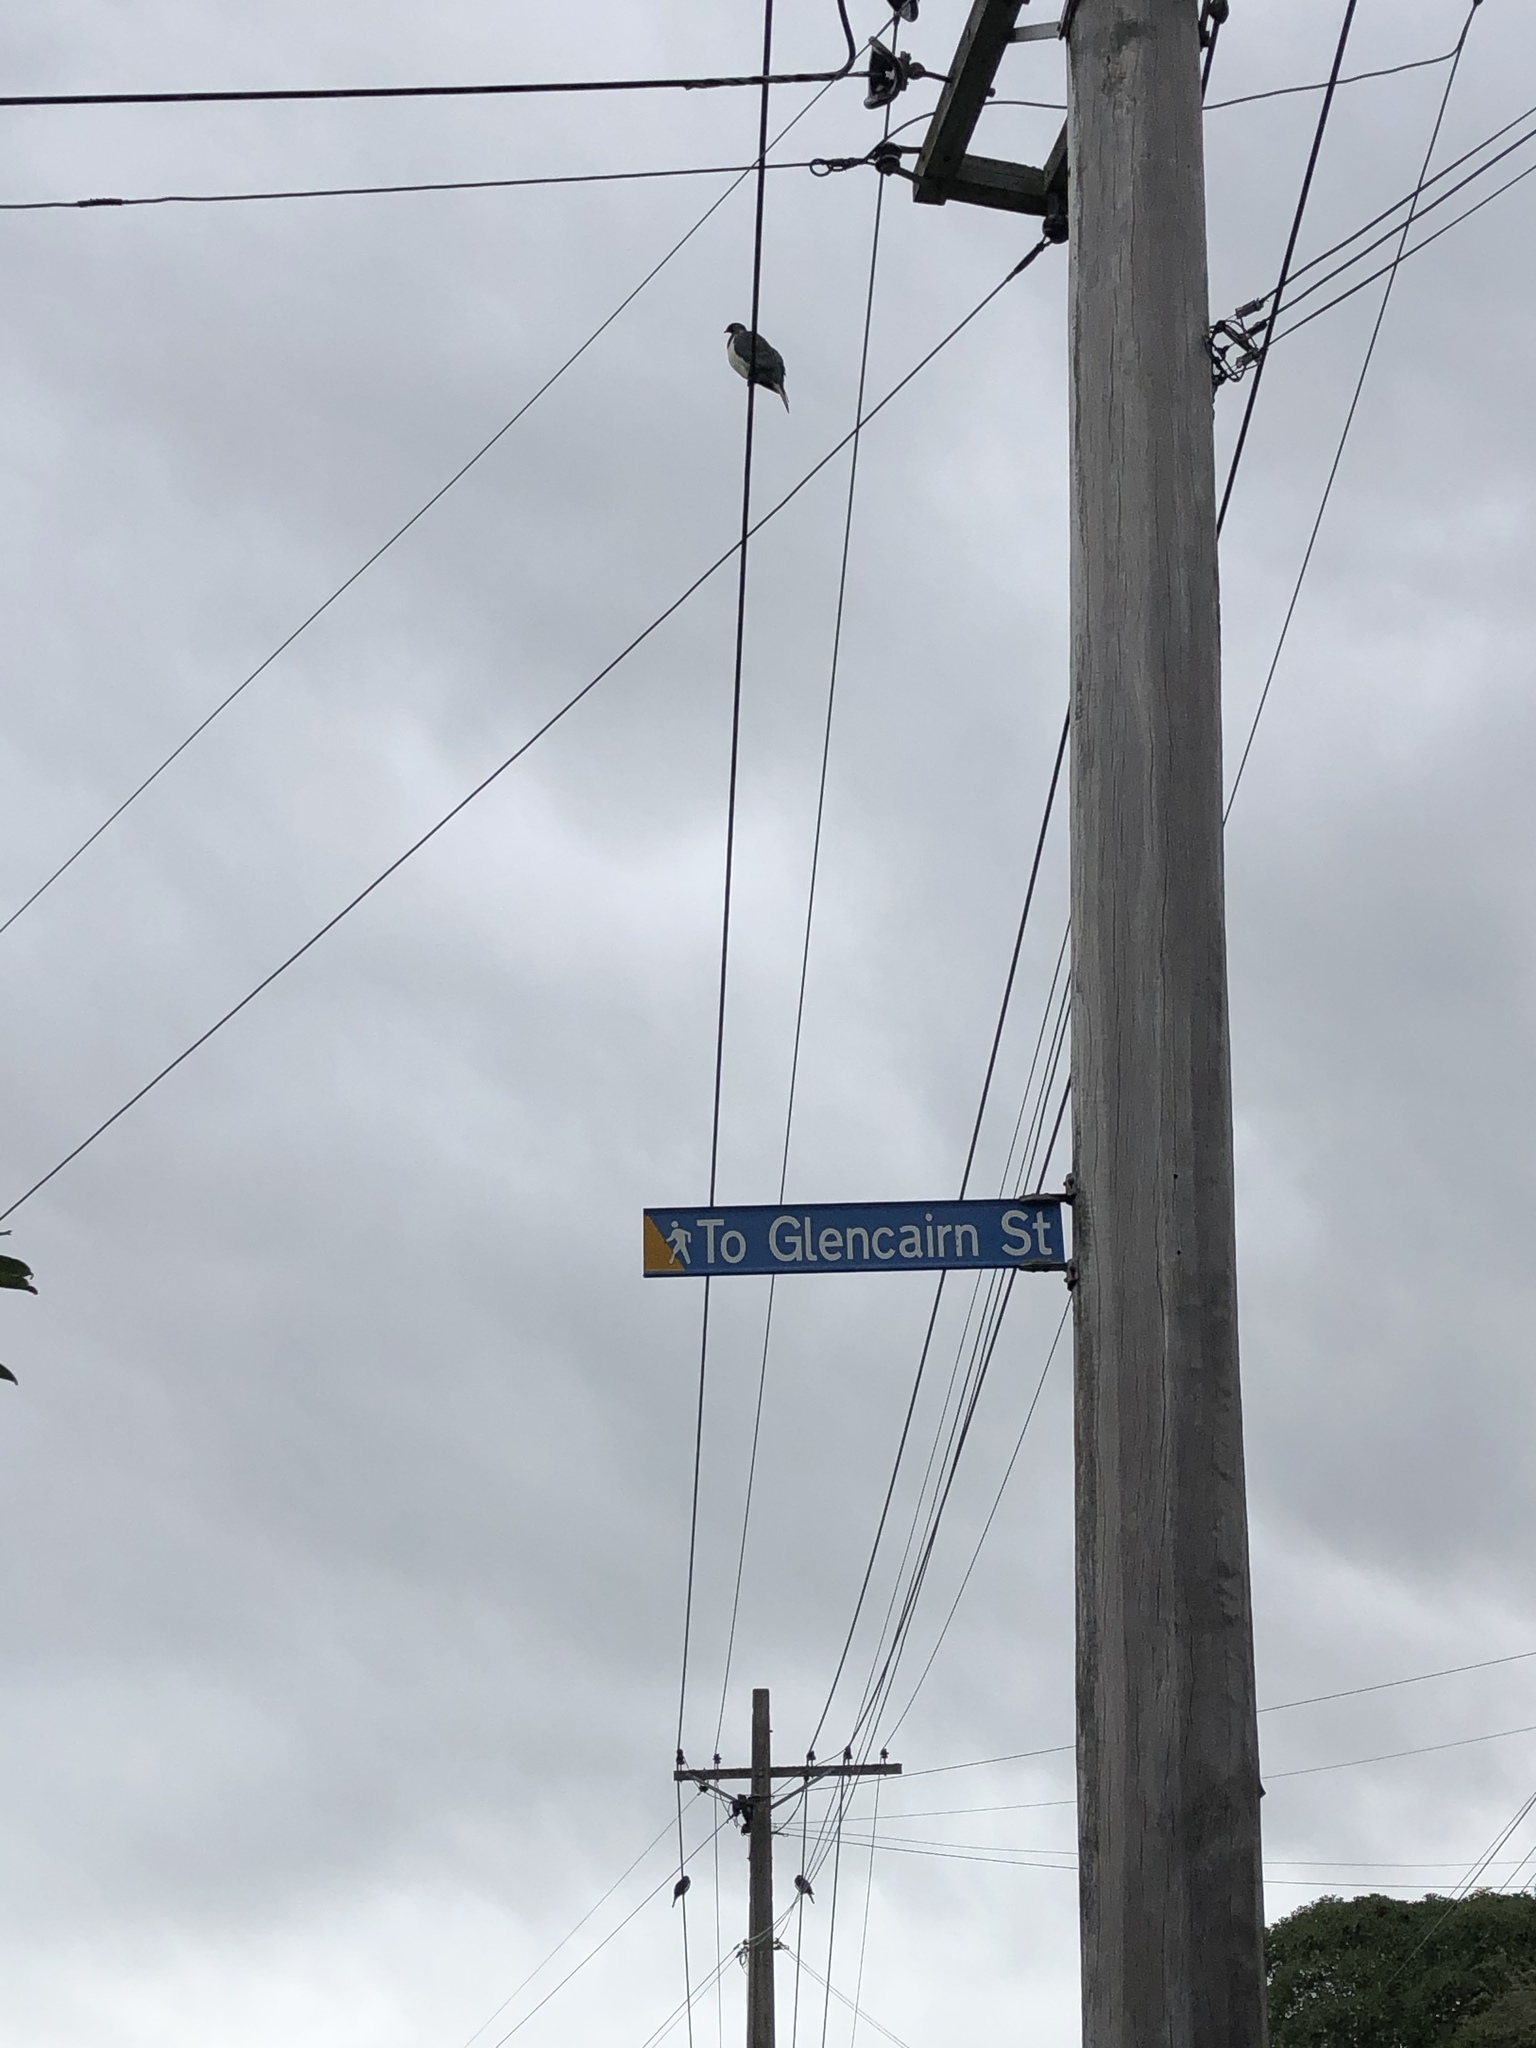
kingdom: Animalia
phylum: Chordata
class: Aves
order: Columbiformes
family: Columbidae
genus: Hemiphaga
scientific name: Hemiphaga novaeseelandiae
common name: New zealand pigeon
